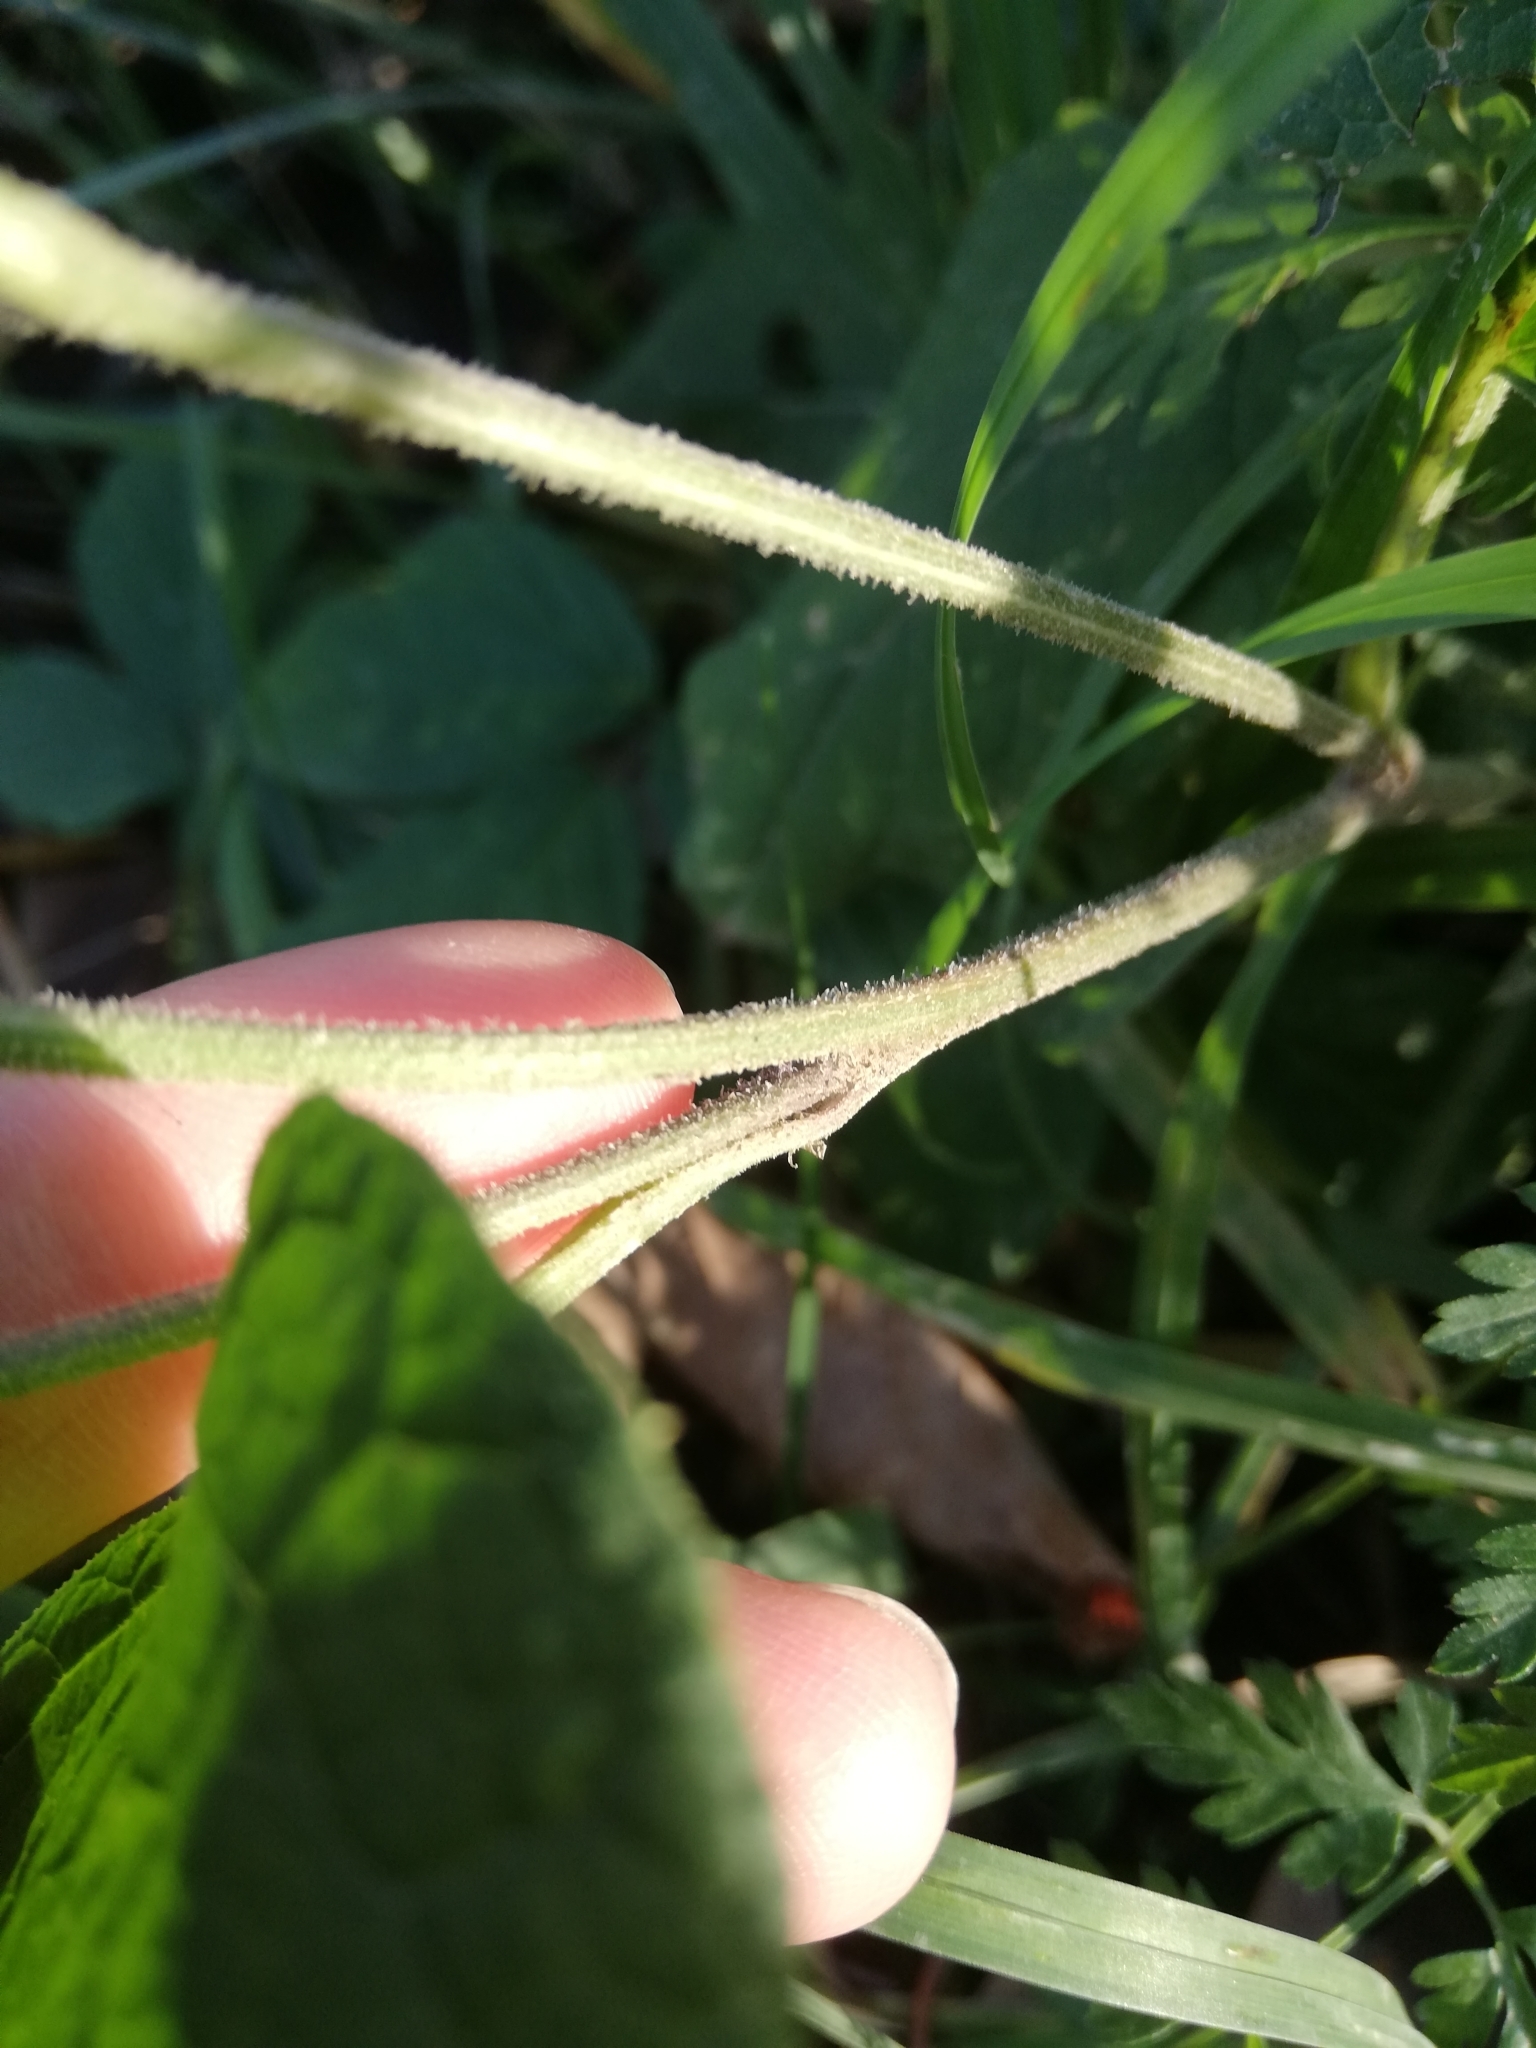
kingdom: Plantae
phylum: Tracheophyta
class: Magnoliopsida
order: Asterales
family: Asteraceae
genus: Arctium
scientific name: Arctium tomentosum
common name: Woolly burdock
